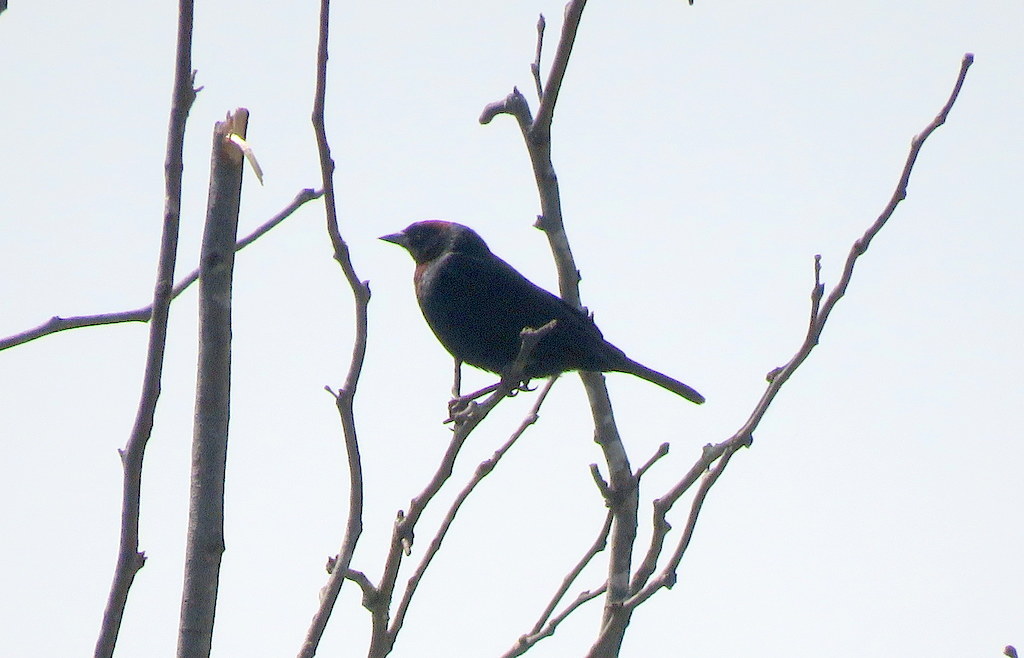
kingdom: Animalia
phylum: Chordata
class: Aves
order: Passeriformes
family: Icteridae
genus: Chrysomus
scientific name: Chrysomus ruficapillus
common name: Chestnut-capped blackbird
